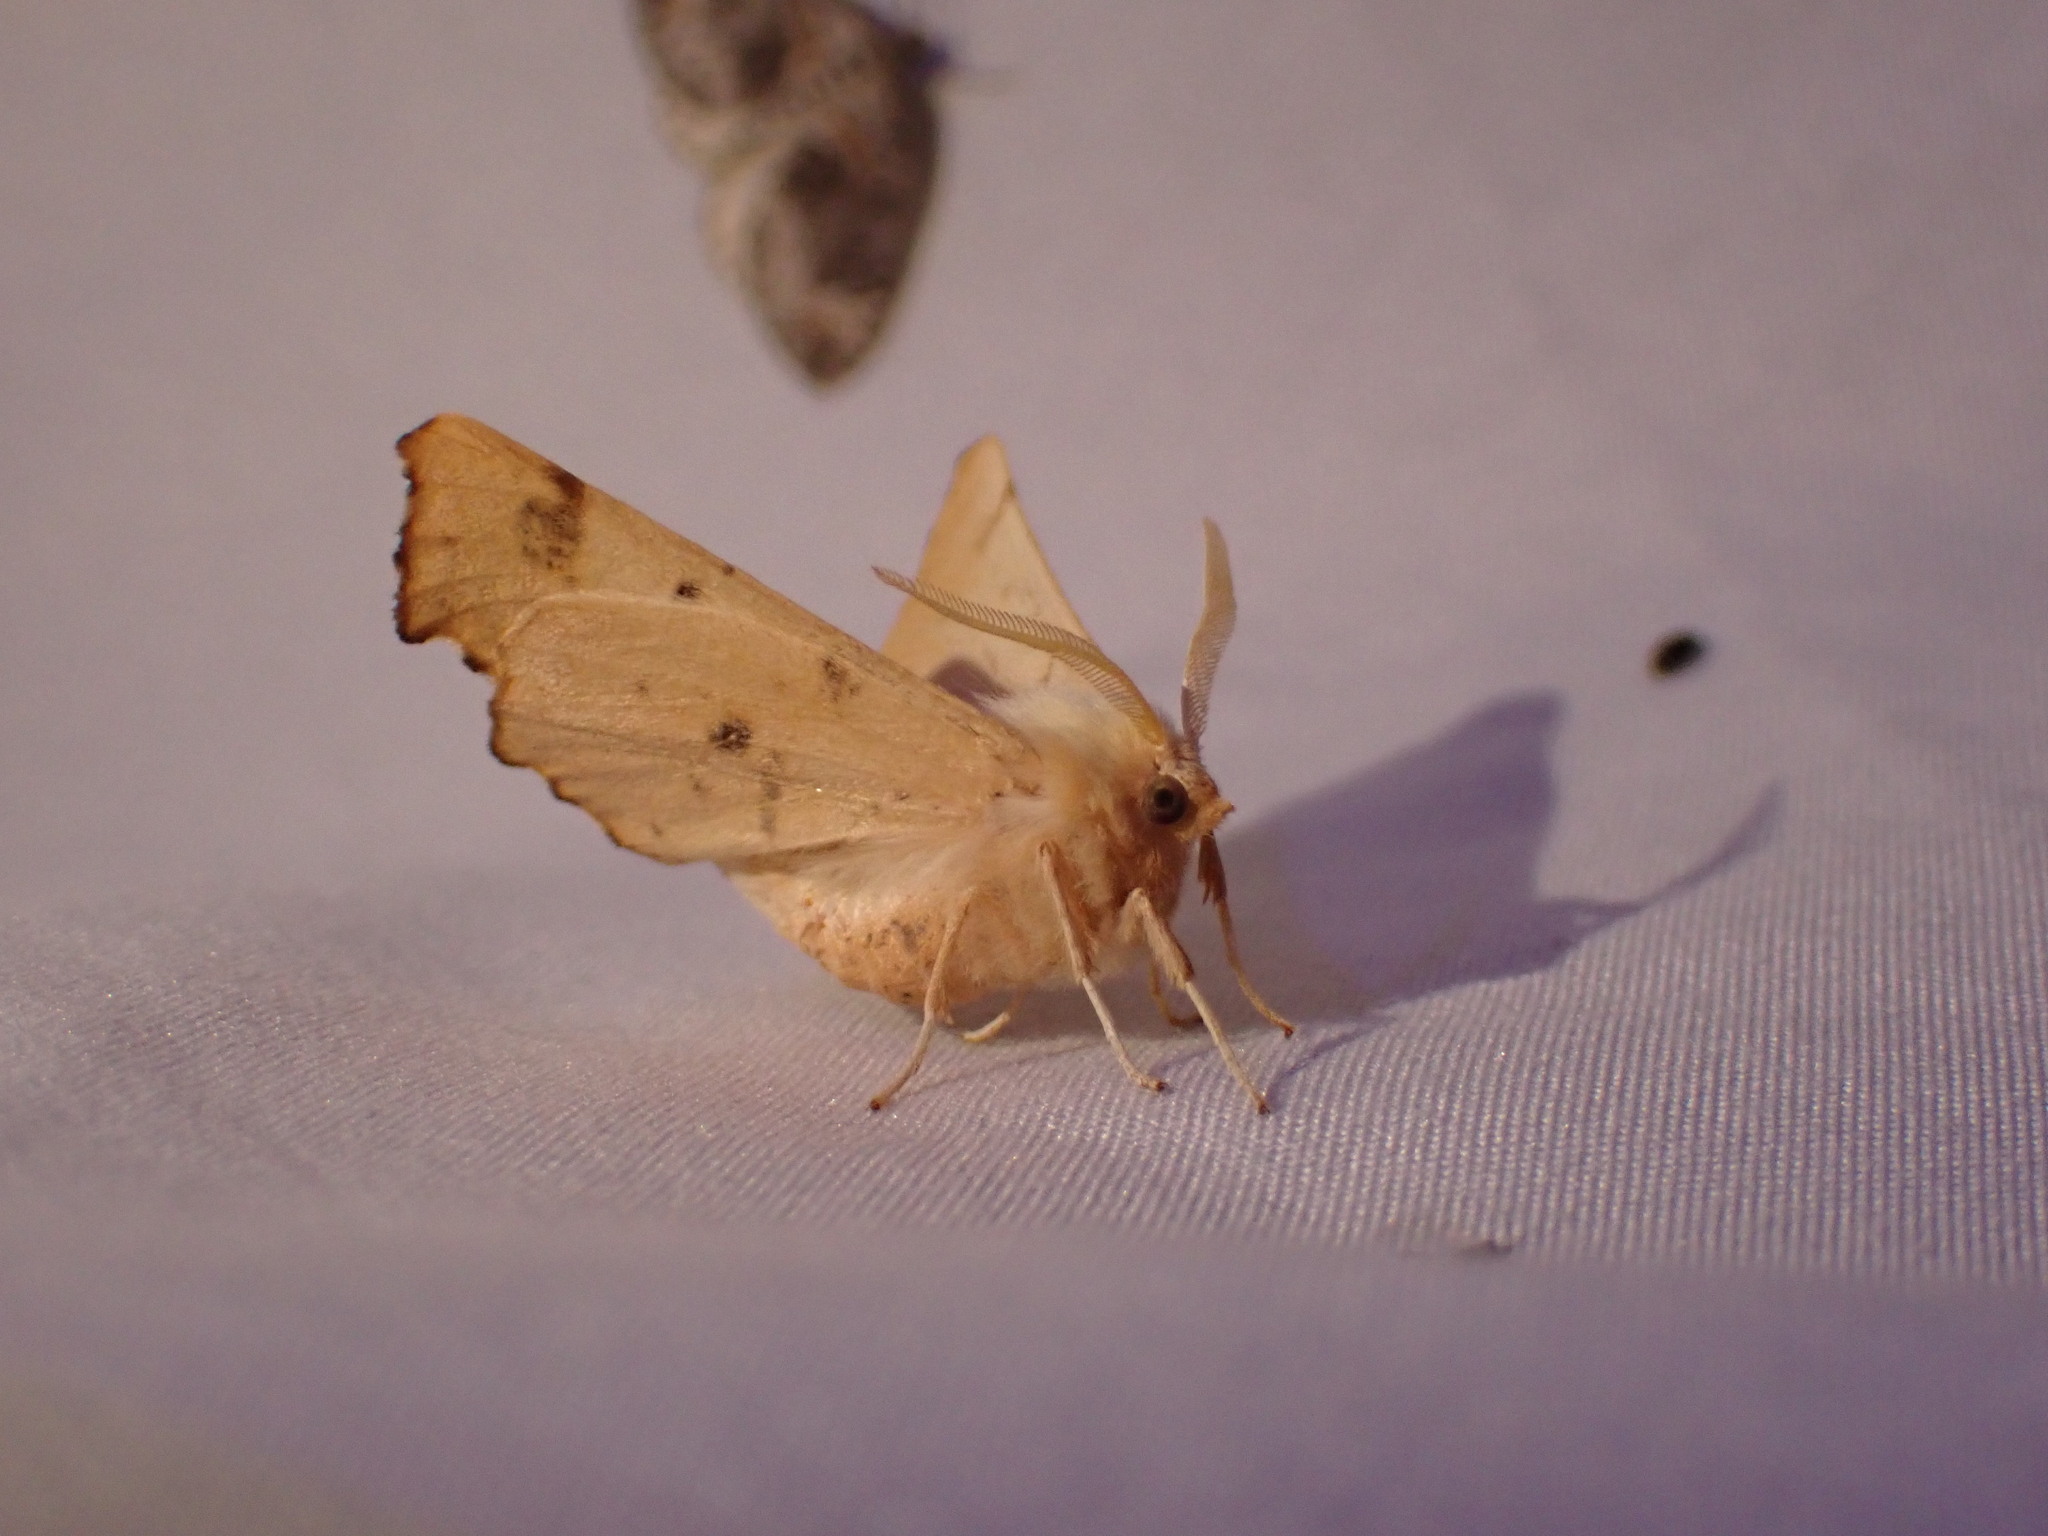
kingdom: Animalia
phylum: Arthropoda
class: Insecta
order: Lepidoptera
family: Geometridae
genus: Ennomos
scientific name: Ennomos magnaria
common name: Maple spanworm
